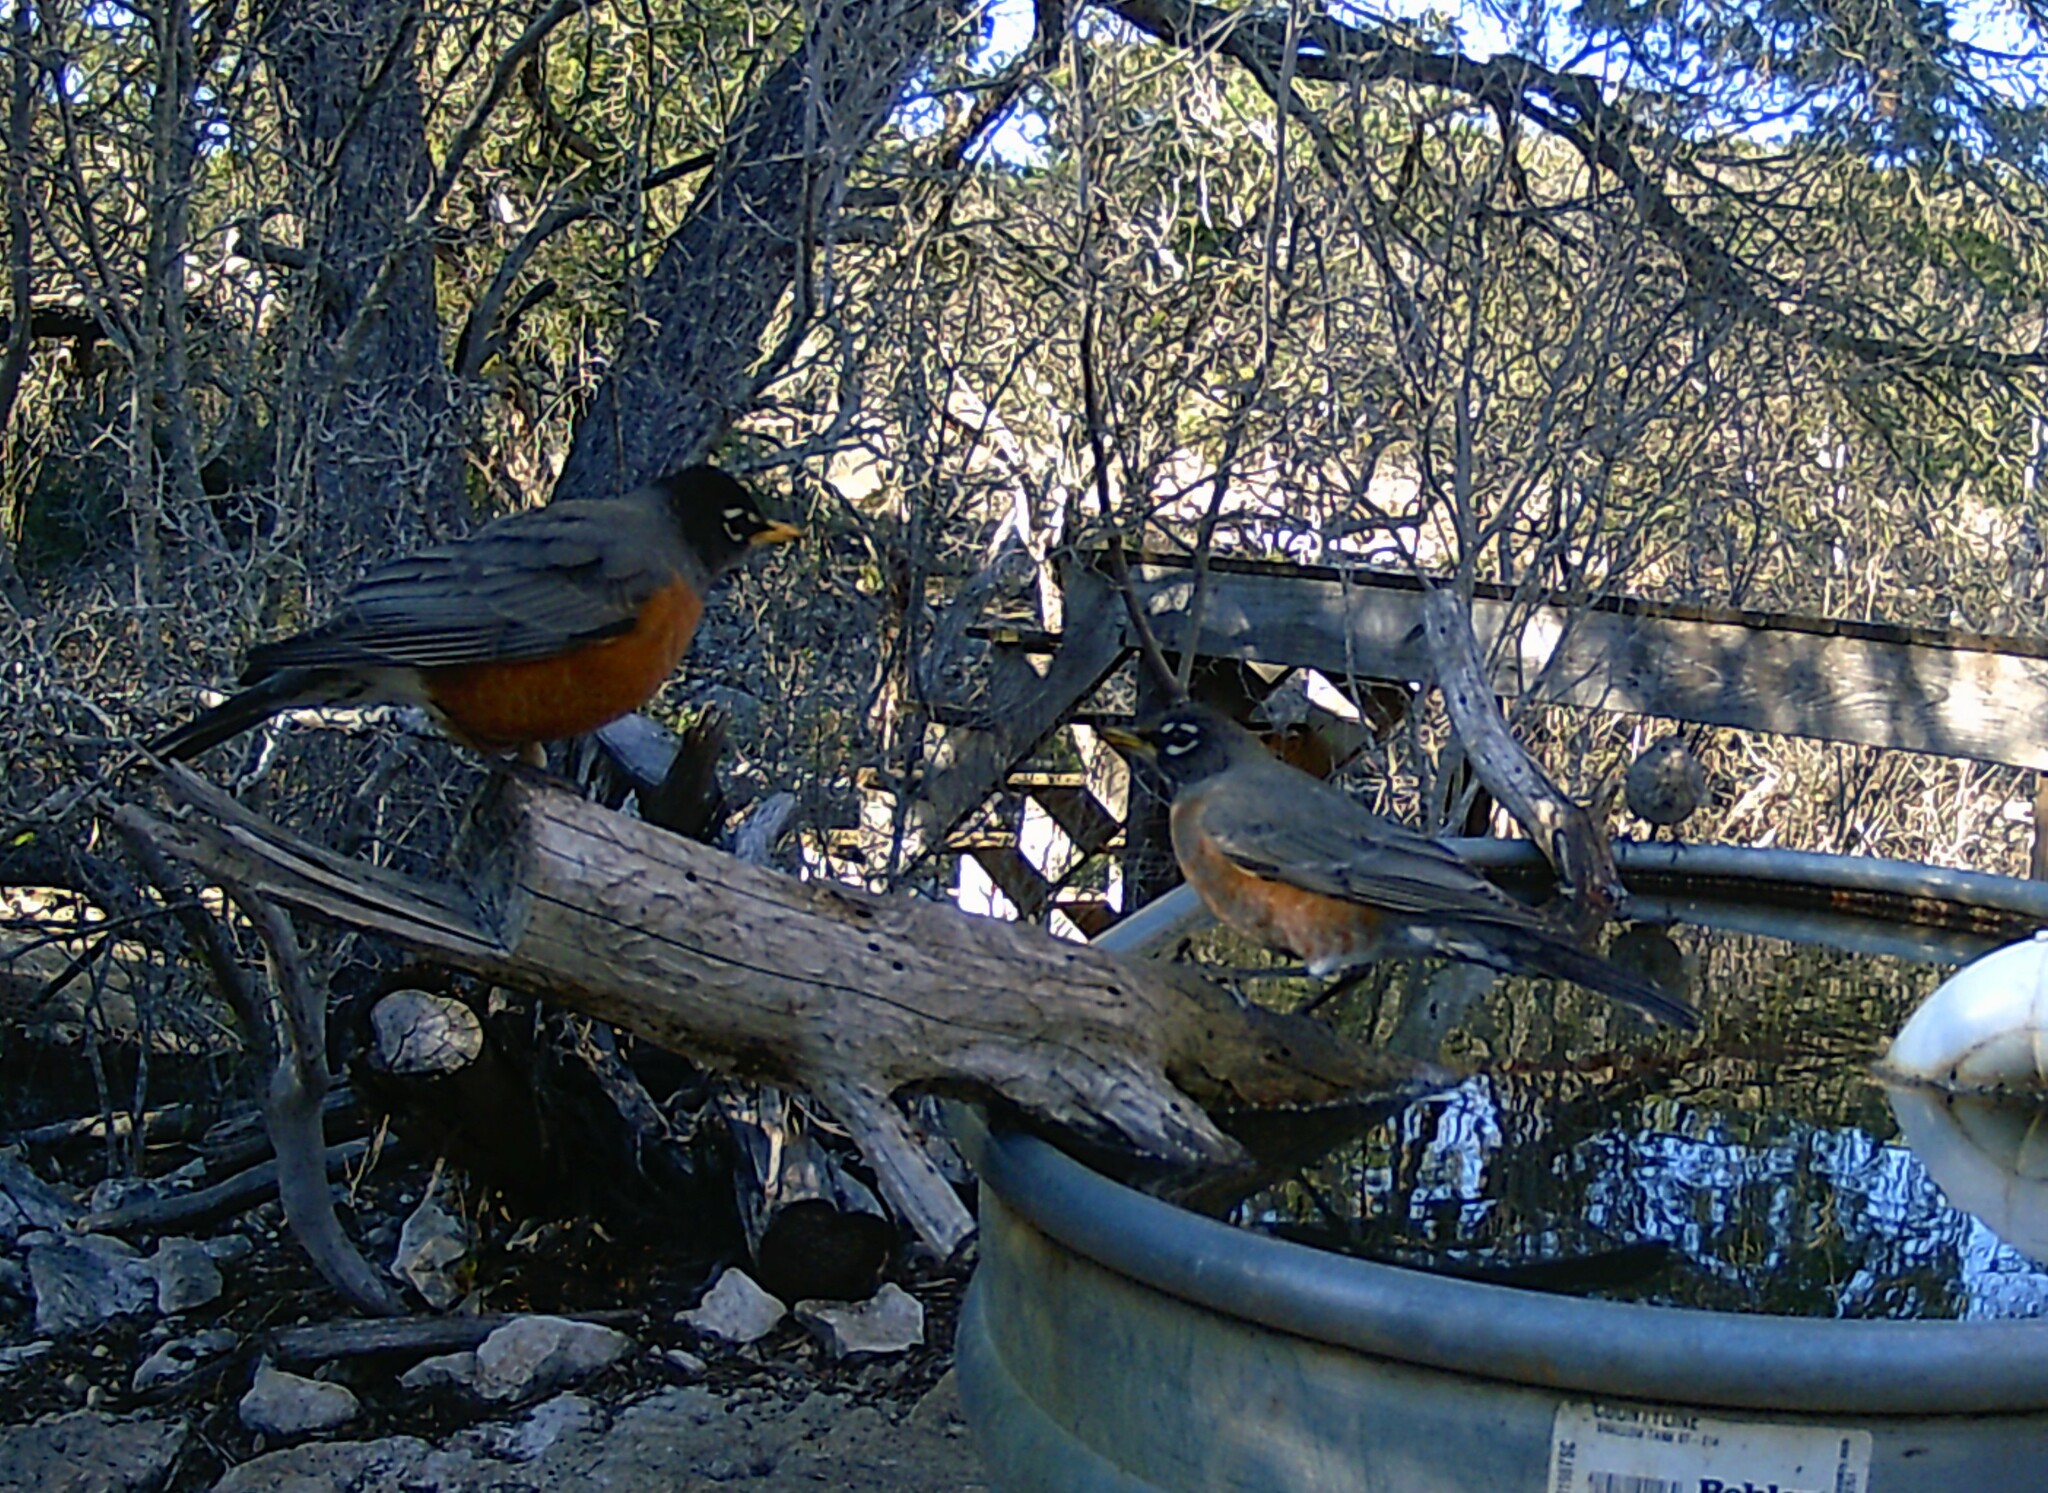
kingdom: Animalia
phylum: Chordata
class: Aves
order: Passeriformes
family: Turdidae
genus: Turdus
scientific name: Turdus migratorius
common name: American robin
